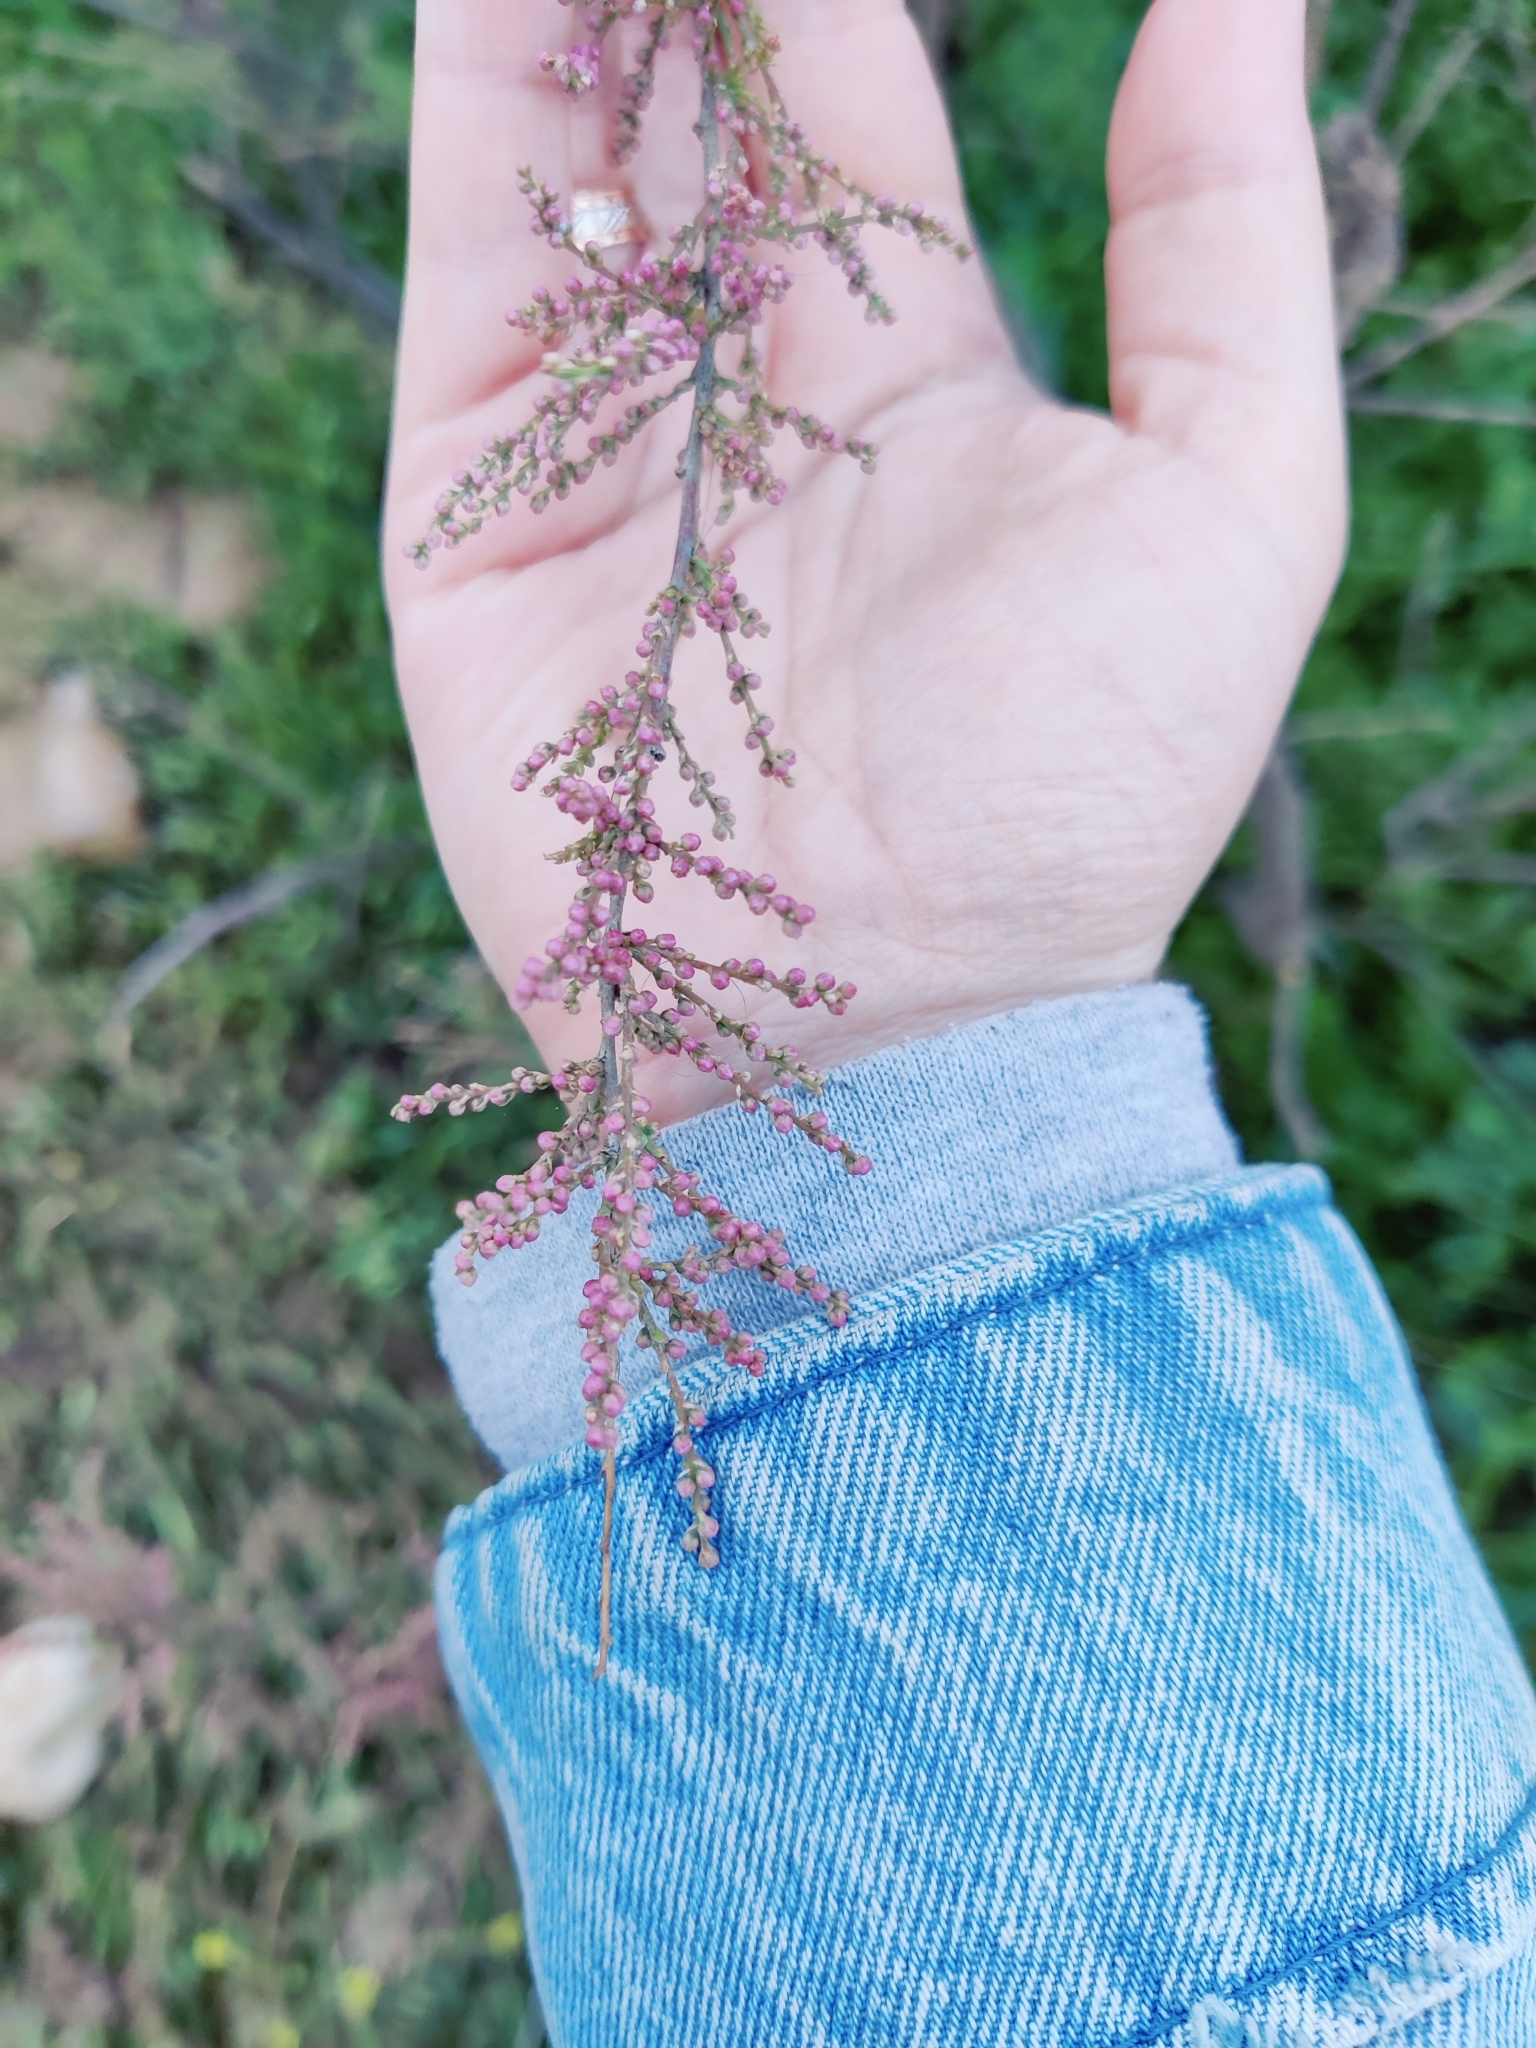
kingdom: Plantae
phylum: Tracheophyta
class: Magnoliopsida
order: Caryophyllales
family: Tamaricaceae
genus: Tamarix
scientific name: Tamarix ramosissima
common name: Pink tamarisk
